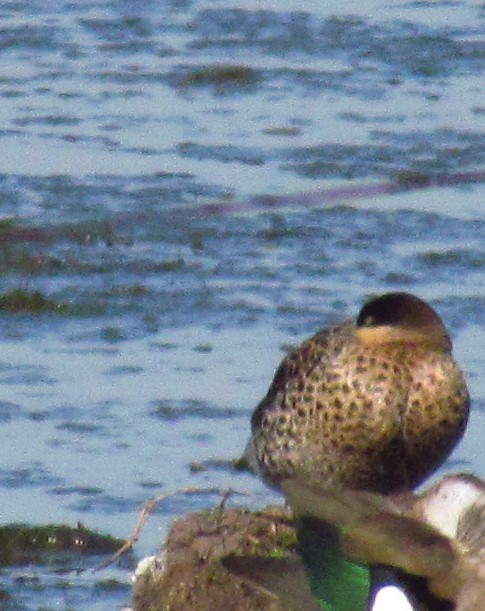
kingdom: Animalia
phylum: Chordata
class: Aves
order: Anseriformes
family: Anatidae
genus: Spatula
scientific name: Spatula versicolor
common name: Silver teal
